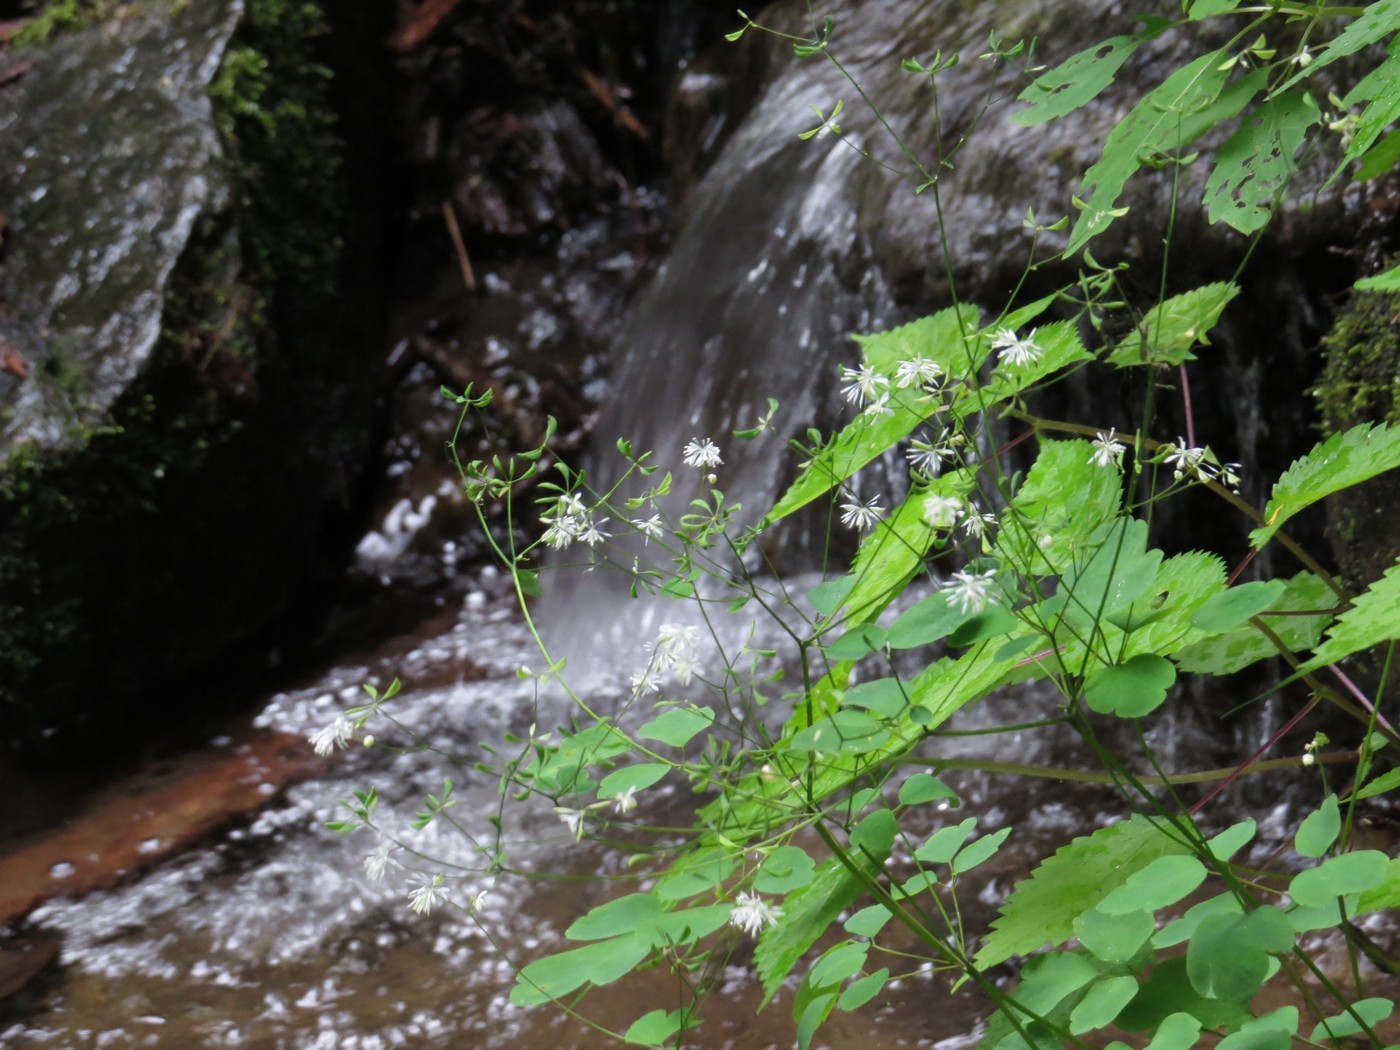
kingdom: Plantae
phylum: Tracheophyta
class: Magnoliopsida
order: Ranunculales
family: Ranunculaceae
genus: Thalictrum
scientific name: Thalictrum clavatum
